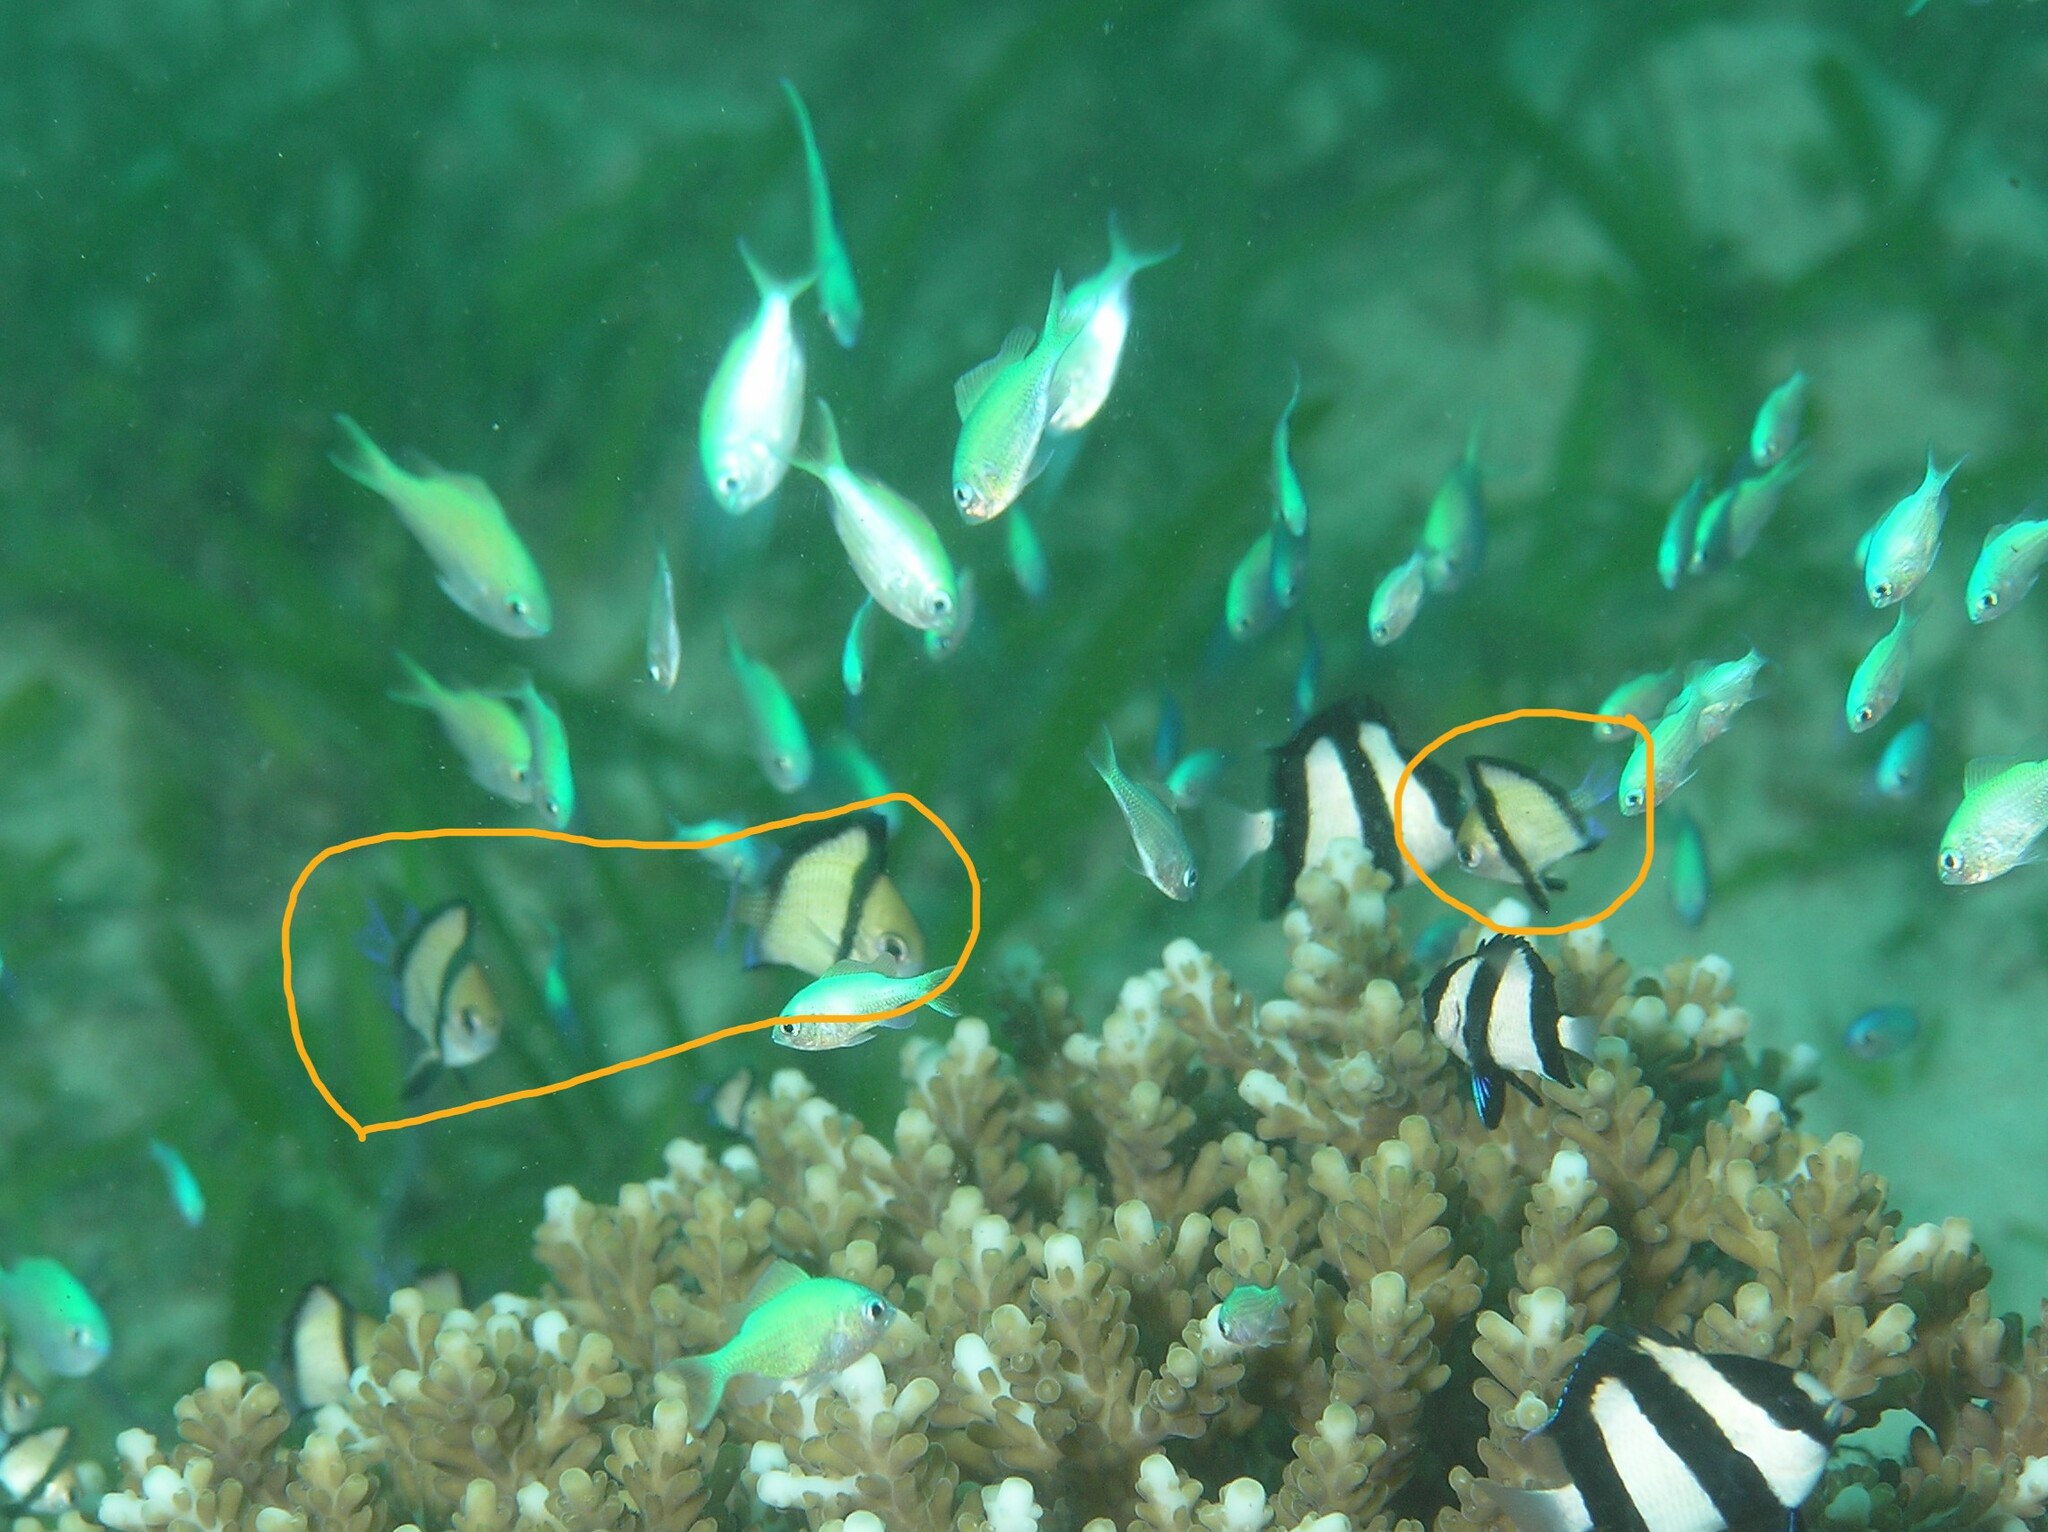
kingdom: Animalia
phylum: Chordata
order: Perciformes
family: Pomacentridae
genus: Dascyllus
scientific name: Dascyllus reticulatus
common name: Reticulated dascyllus
